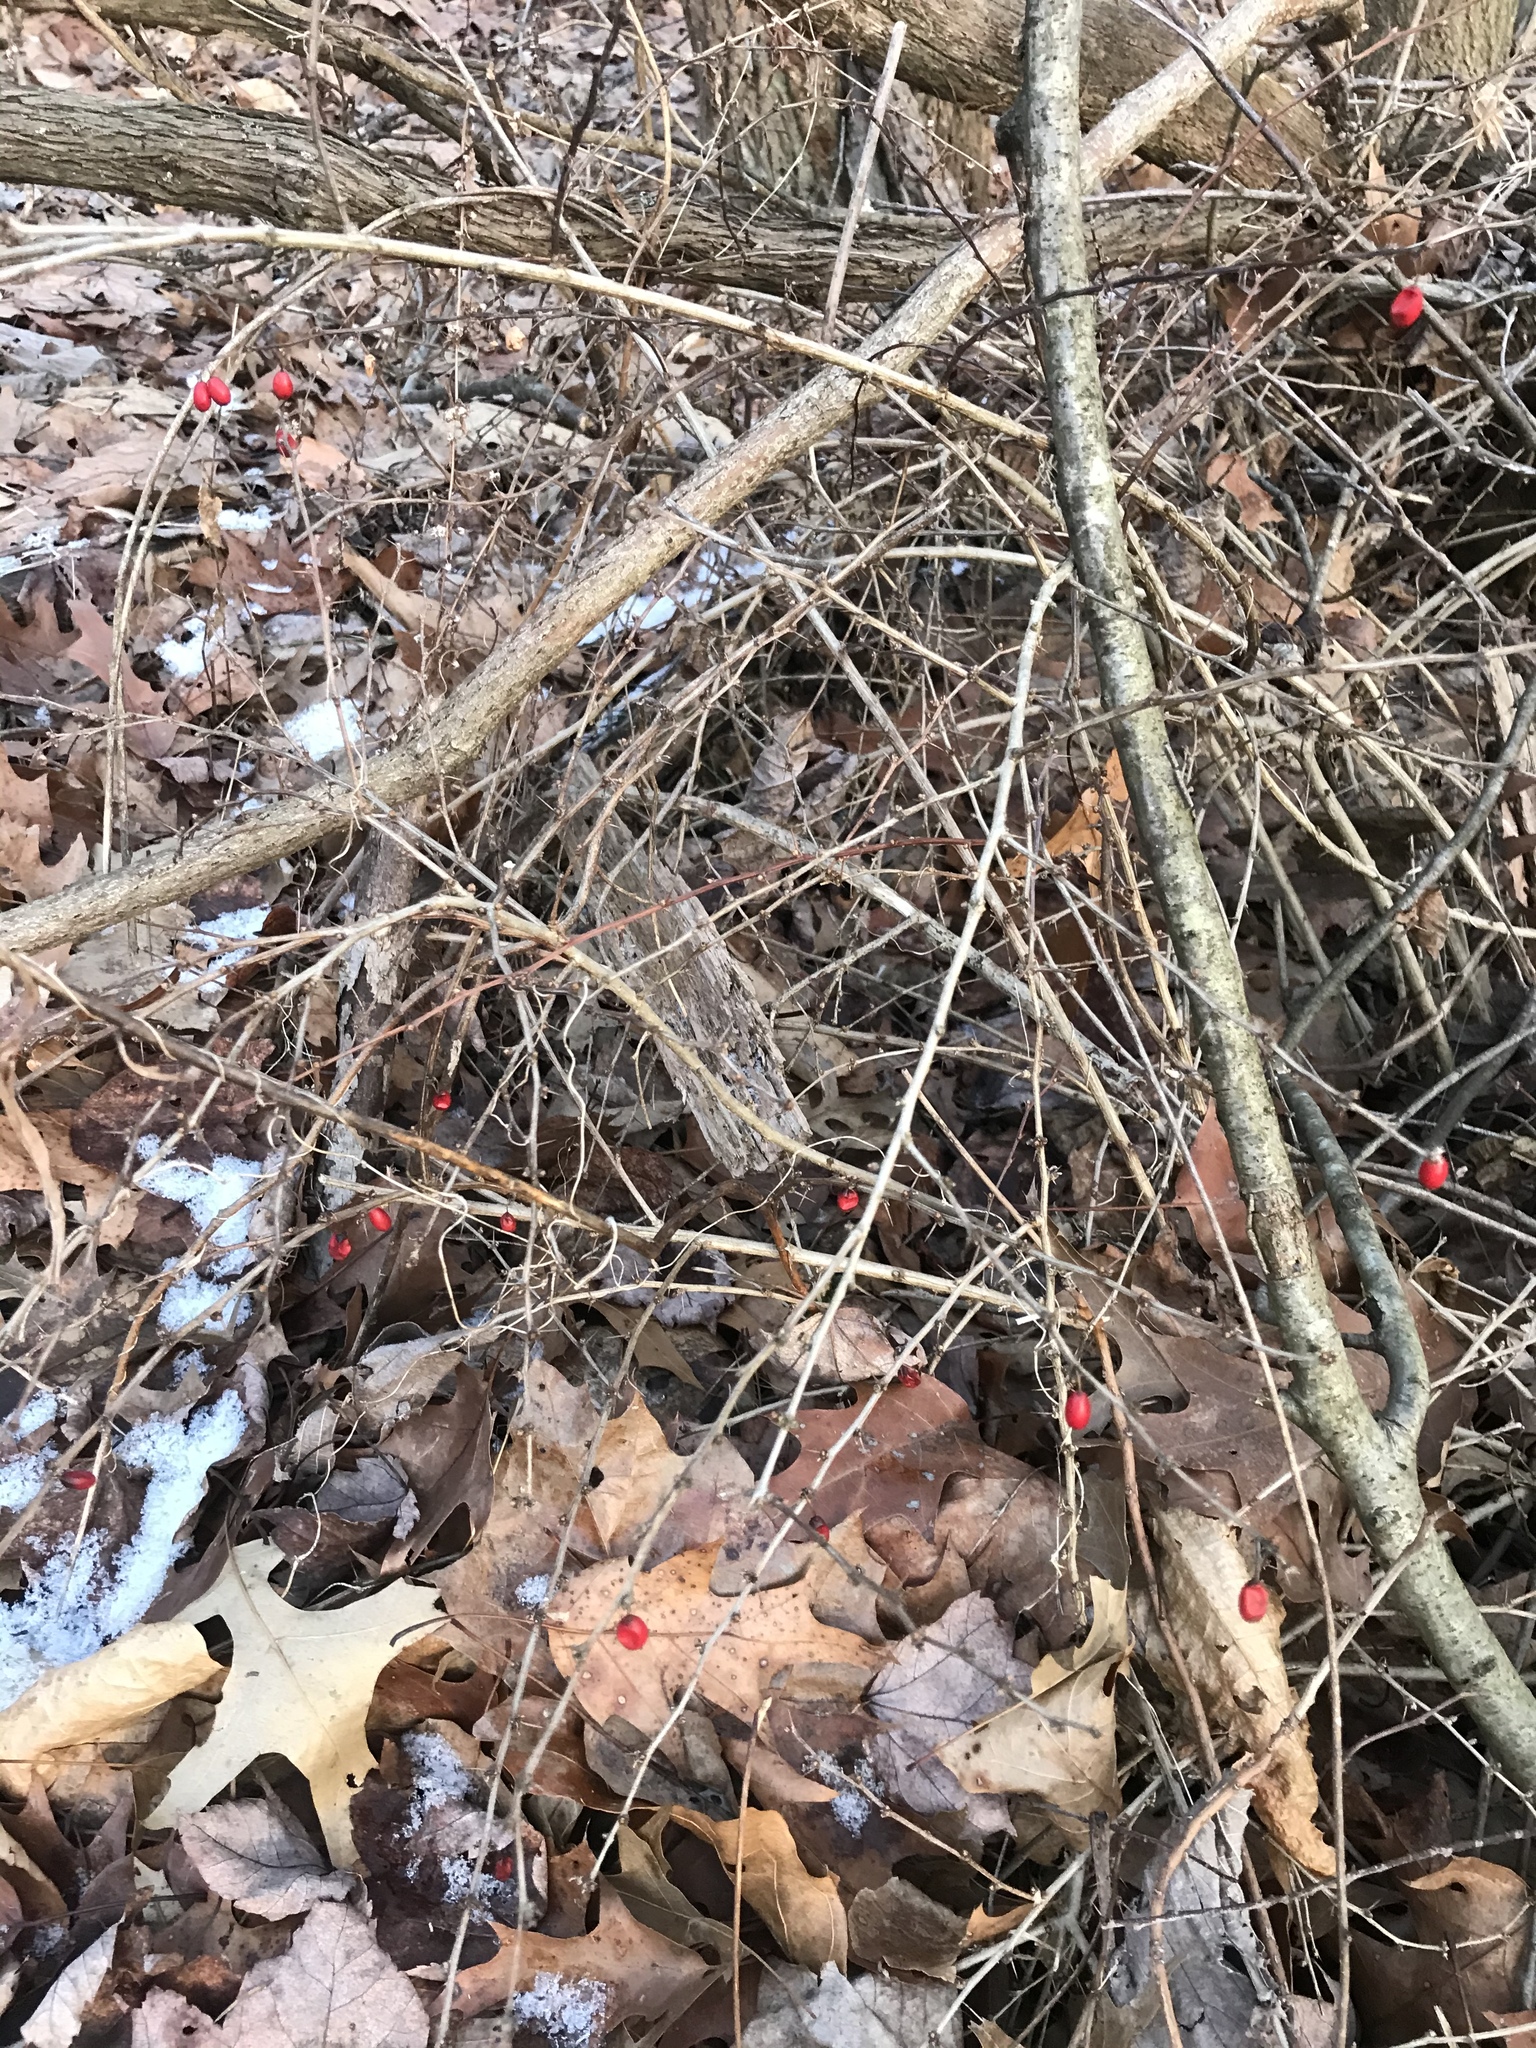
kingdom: Plantae
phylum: Tracheophyta
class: Magnoliopsida
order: Ranunculales
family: Berberidaceae
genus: Berberis
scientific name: Berberis thunbergii
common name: Japanese barberry
